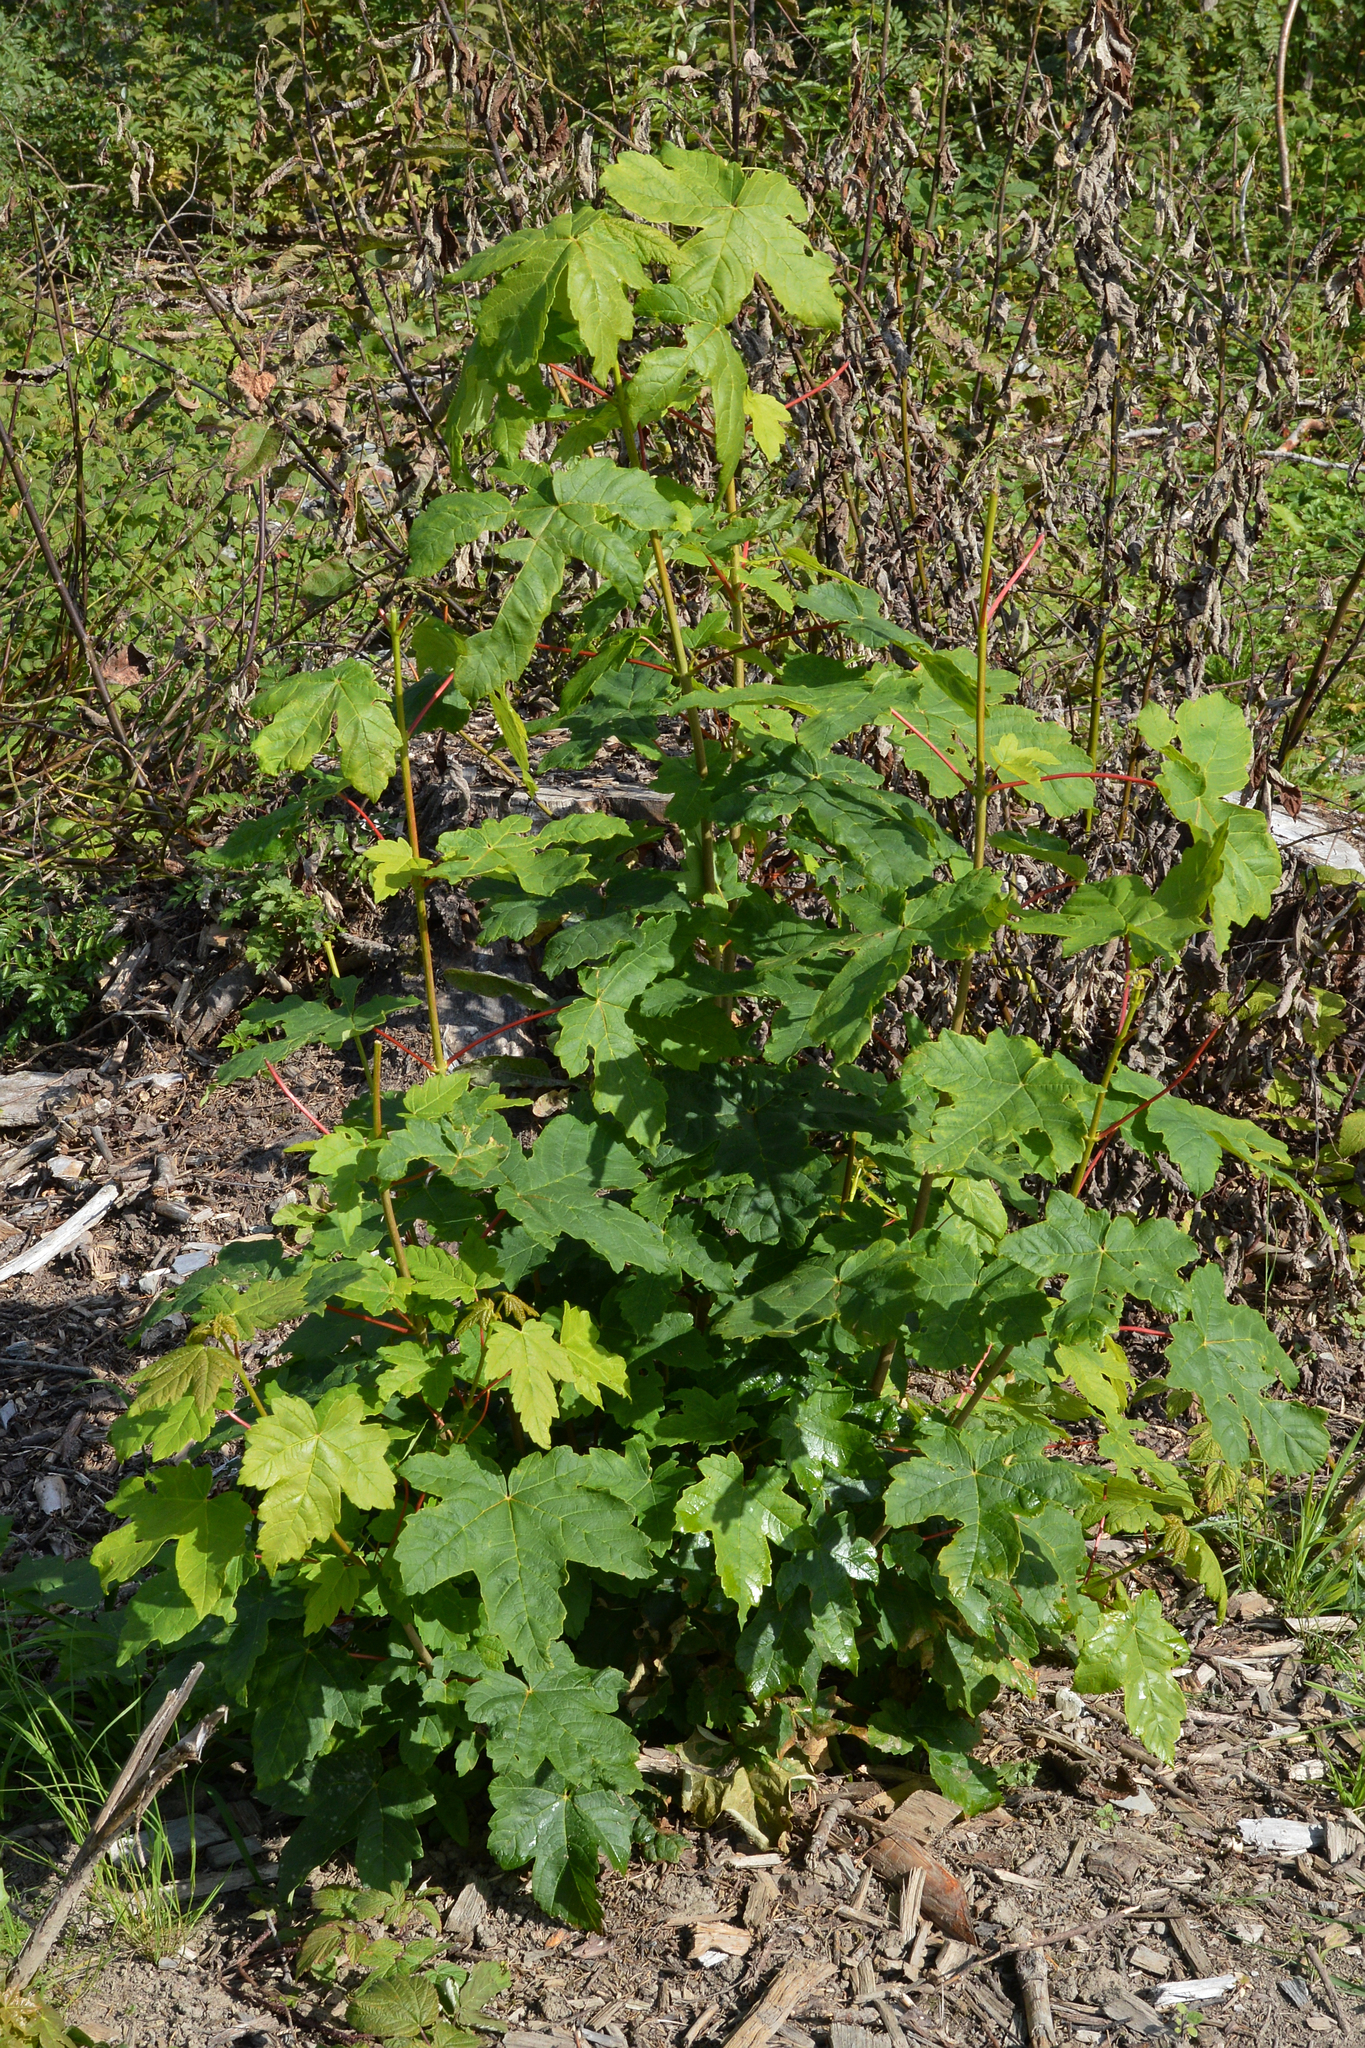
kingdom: Plantae
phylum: Tracheophyta
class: Magnoliopsida
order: Sapindales
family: Sapindaceae
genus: Acer
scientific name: Acer pseudoplatanus
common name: Sycamore
